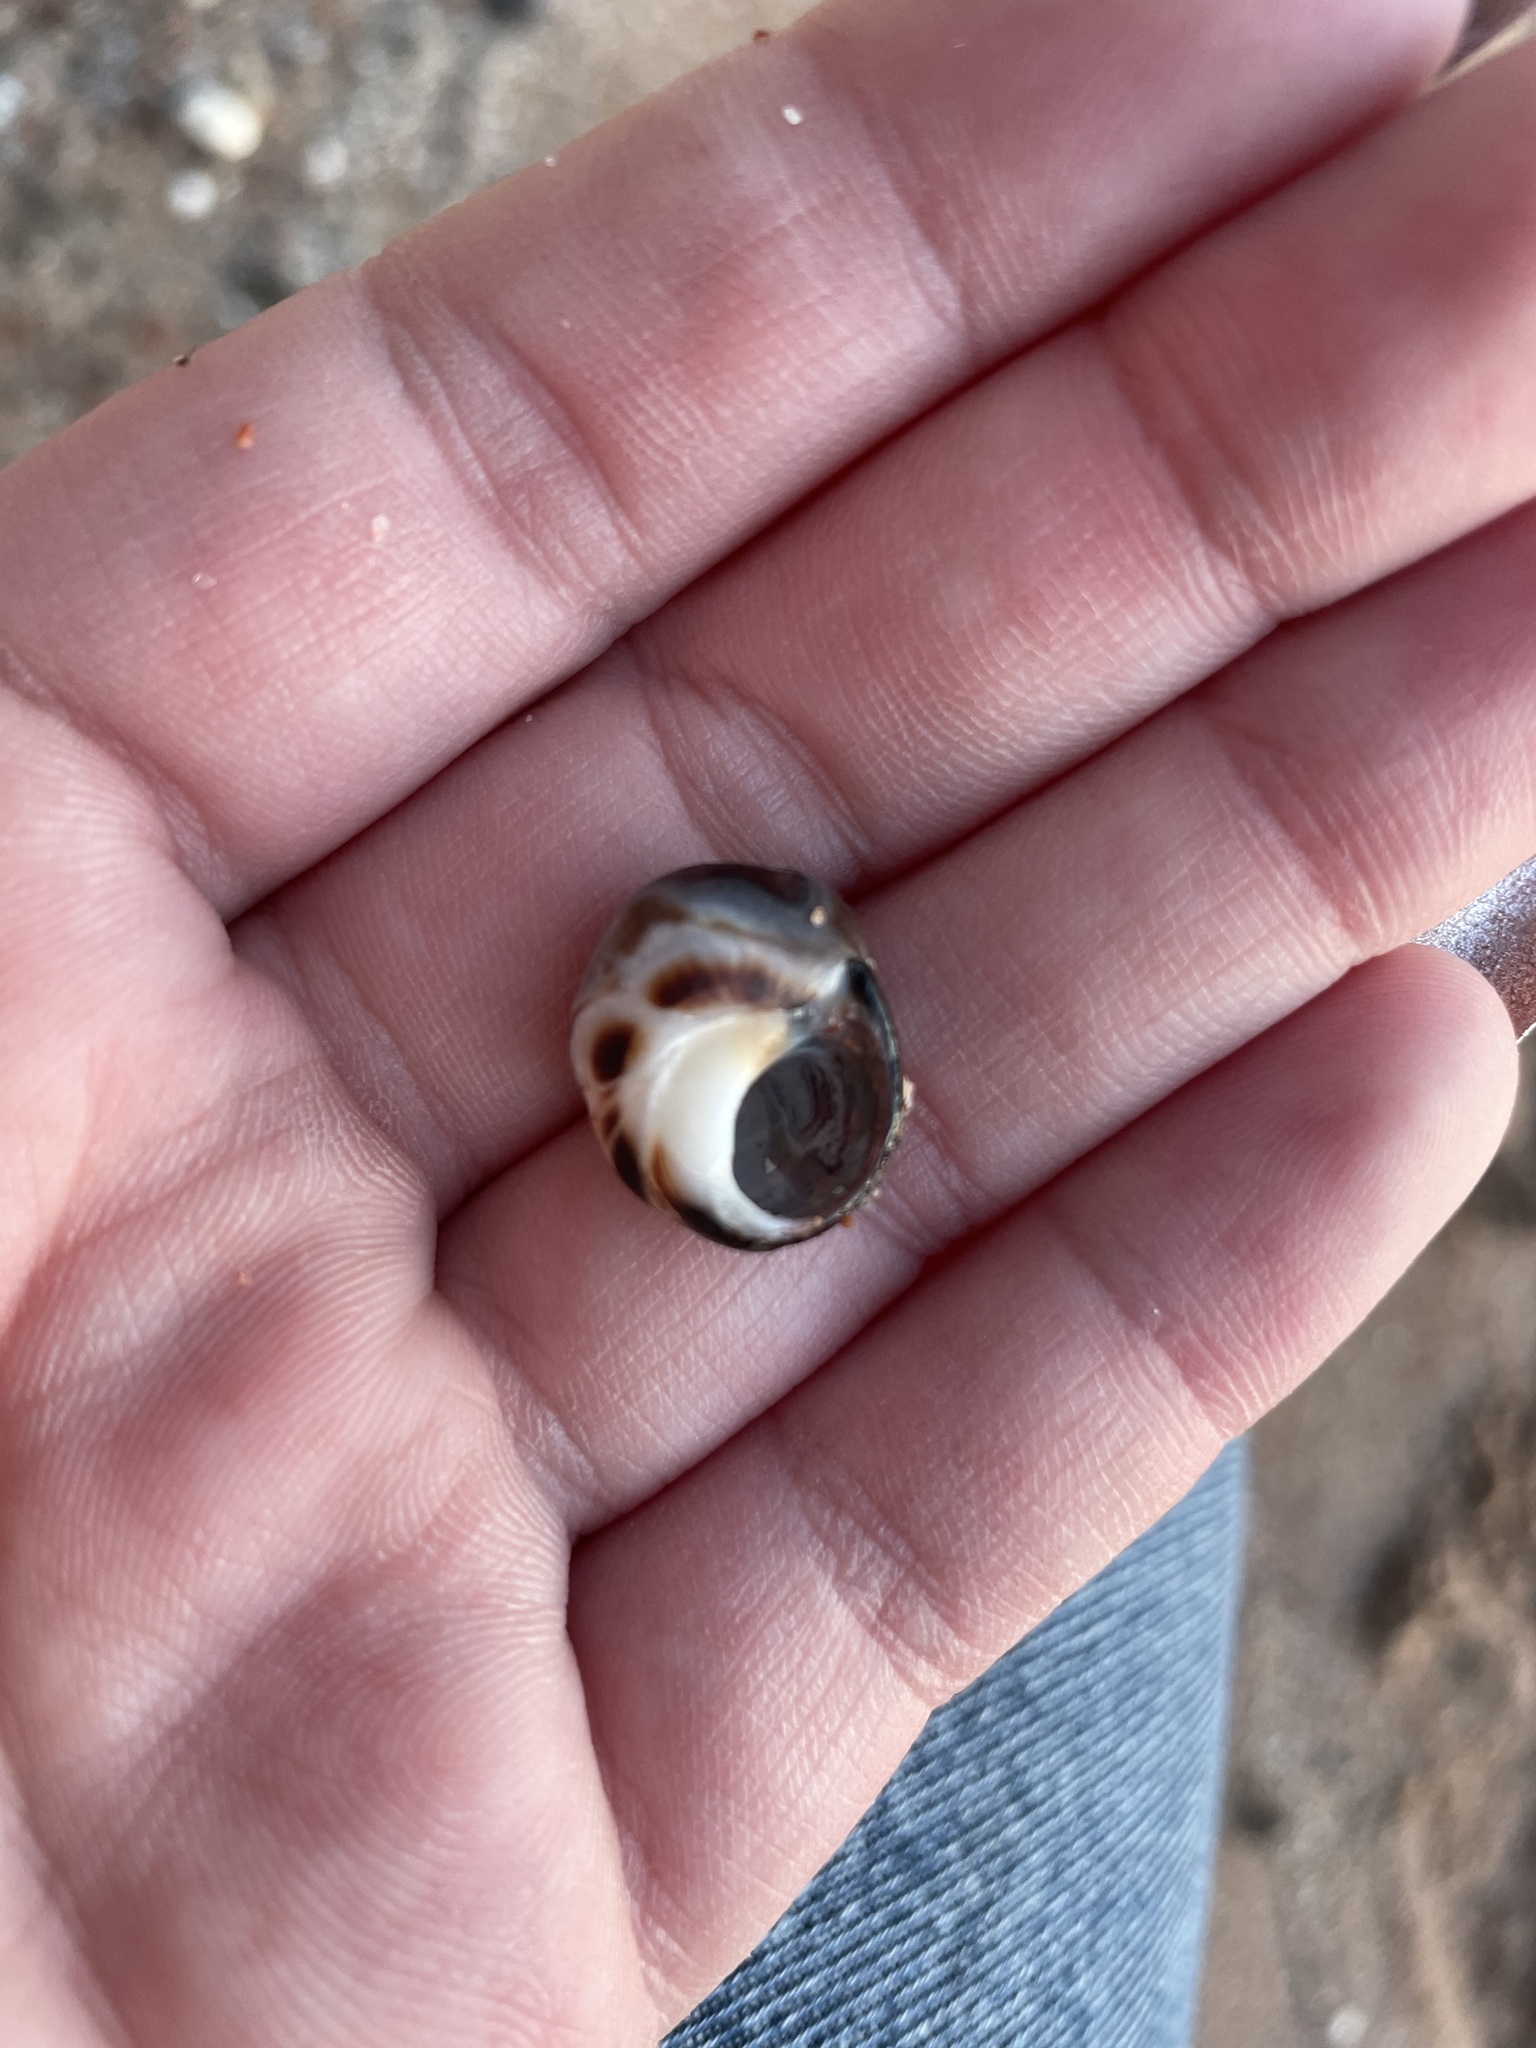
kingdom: Animalia
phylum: Mollusca
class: Gastropoda
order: Littorinimorpha
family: Littorinidae
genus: Littorina
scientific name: Littorina littorea
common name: Common periwinkle
